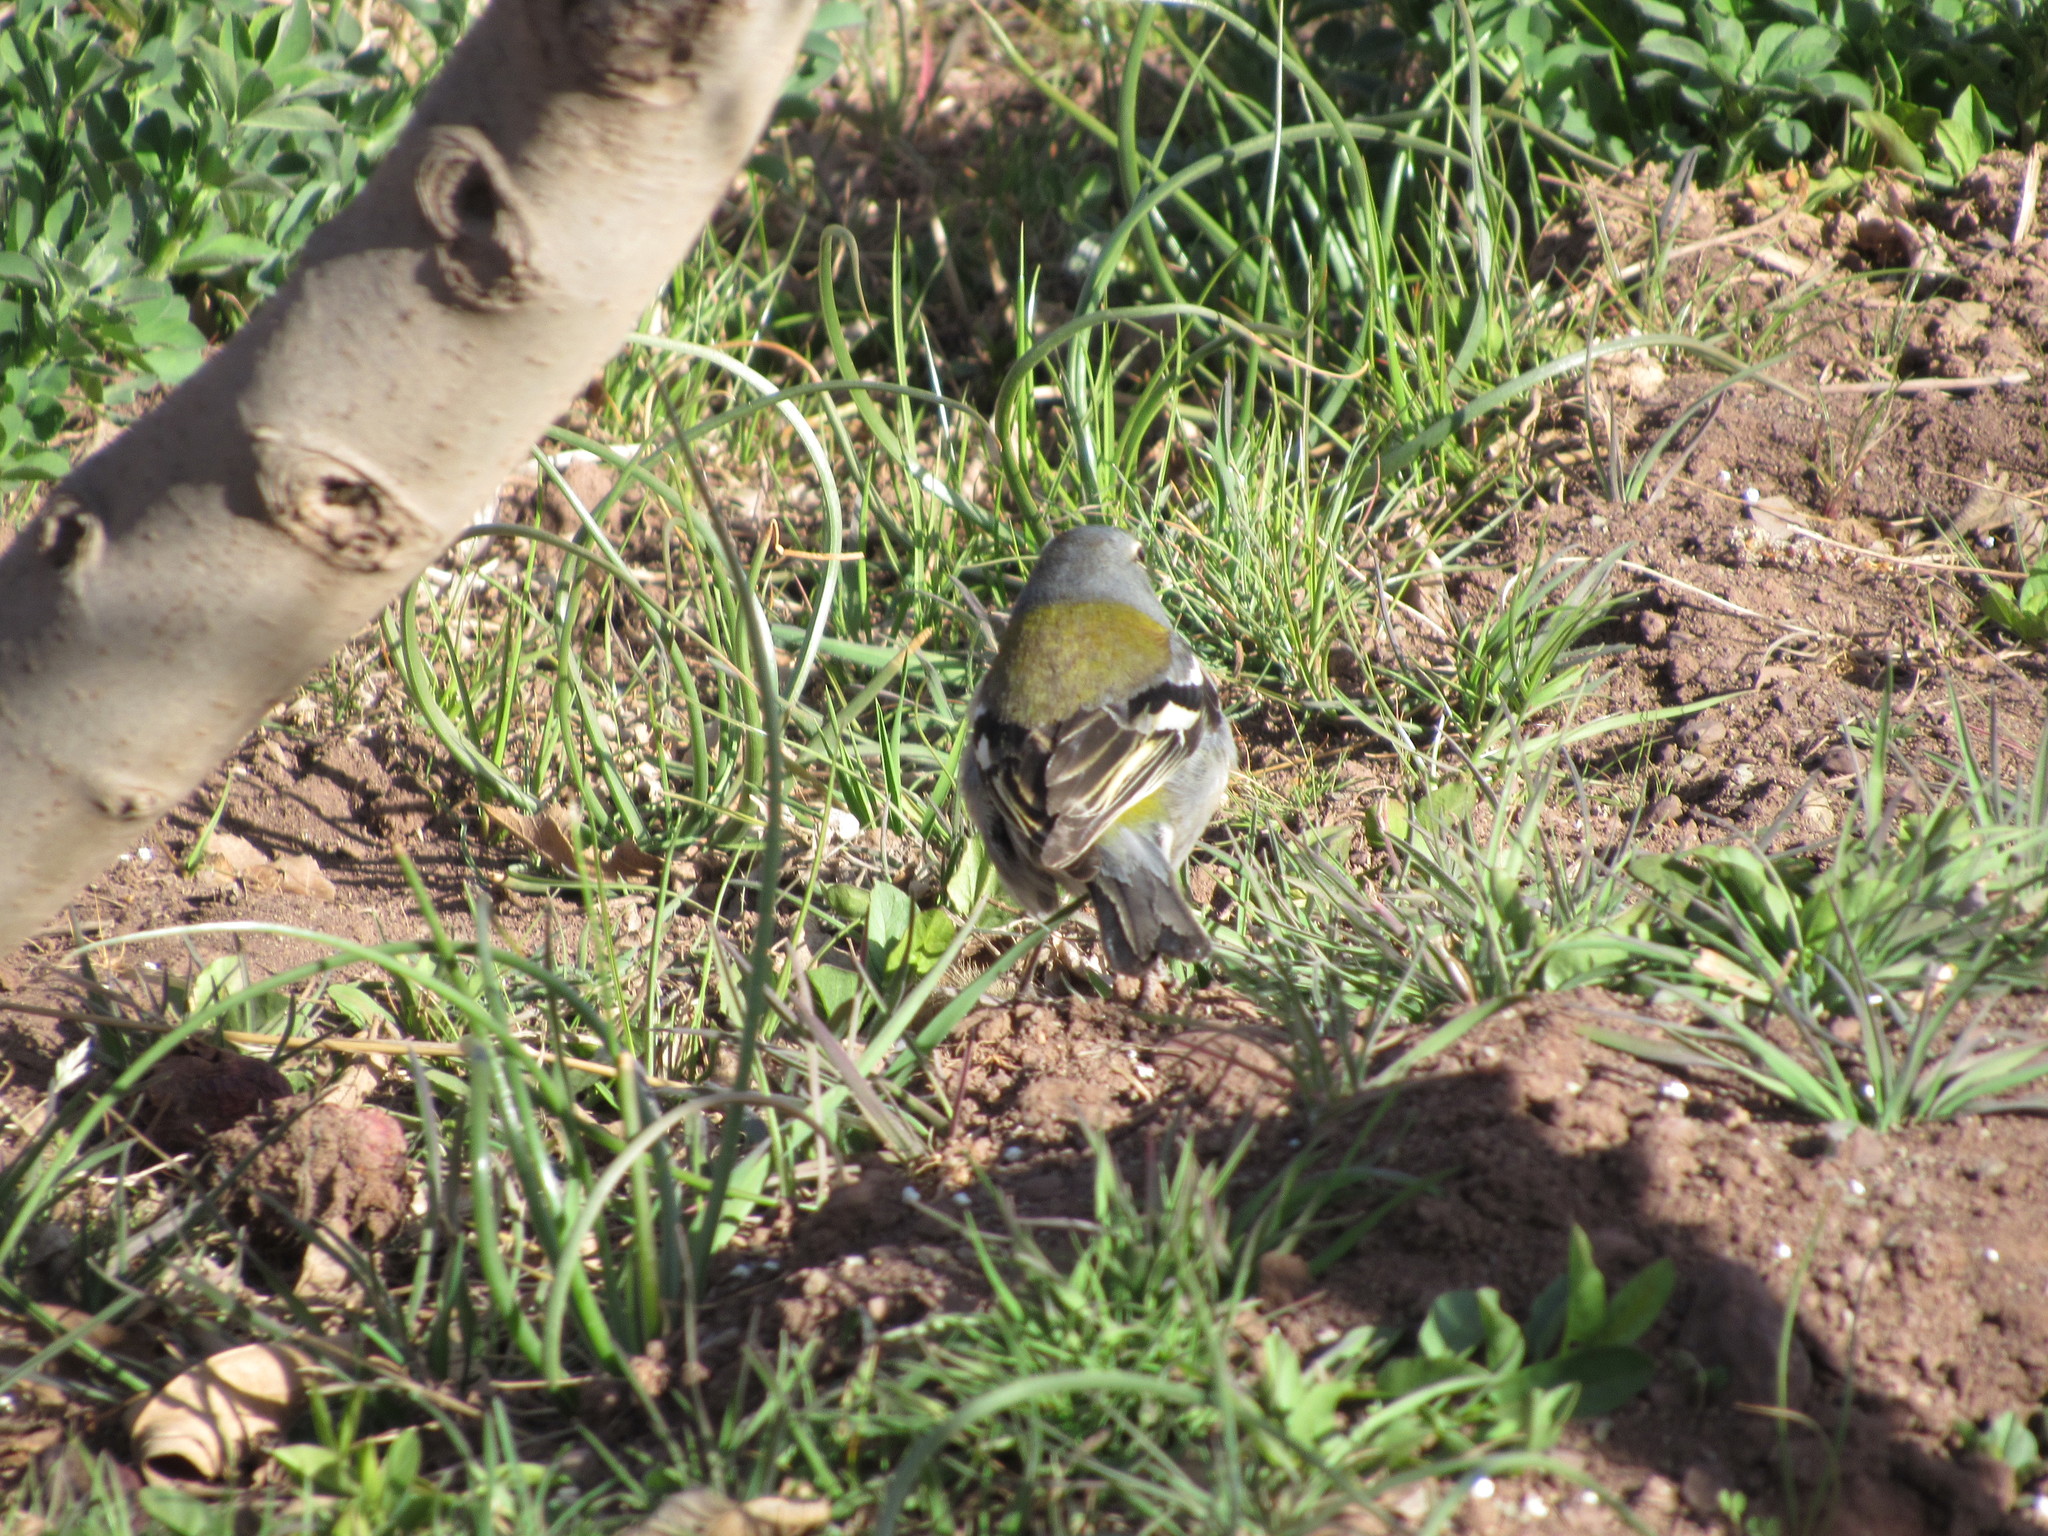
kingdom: Animalia
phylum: Chordata
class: Aves
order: Passeriformes
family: Fringillidae
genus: Fringilla
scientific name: Fringilla spodiogenys
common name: African chaffinch
